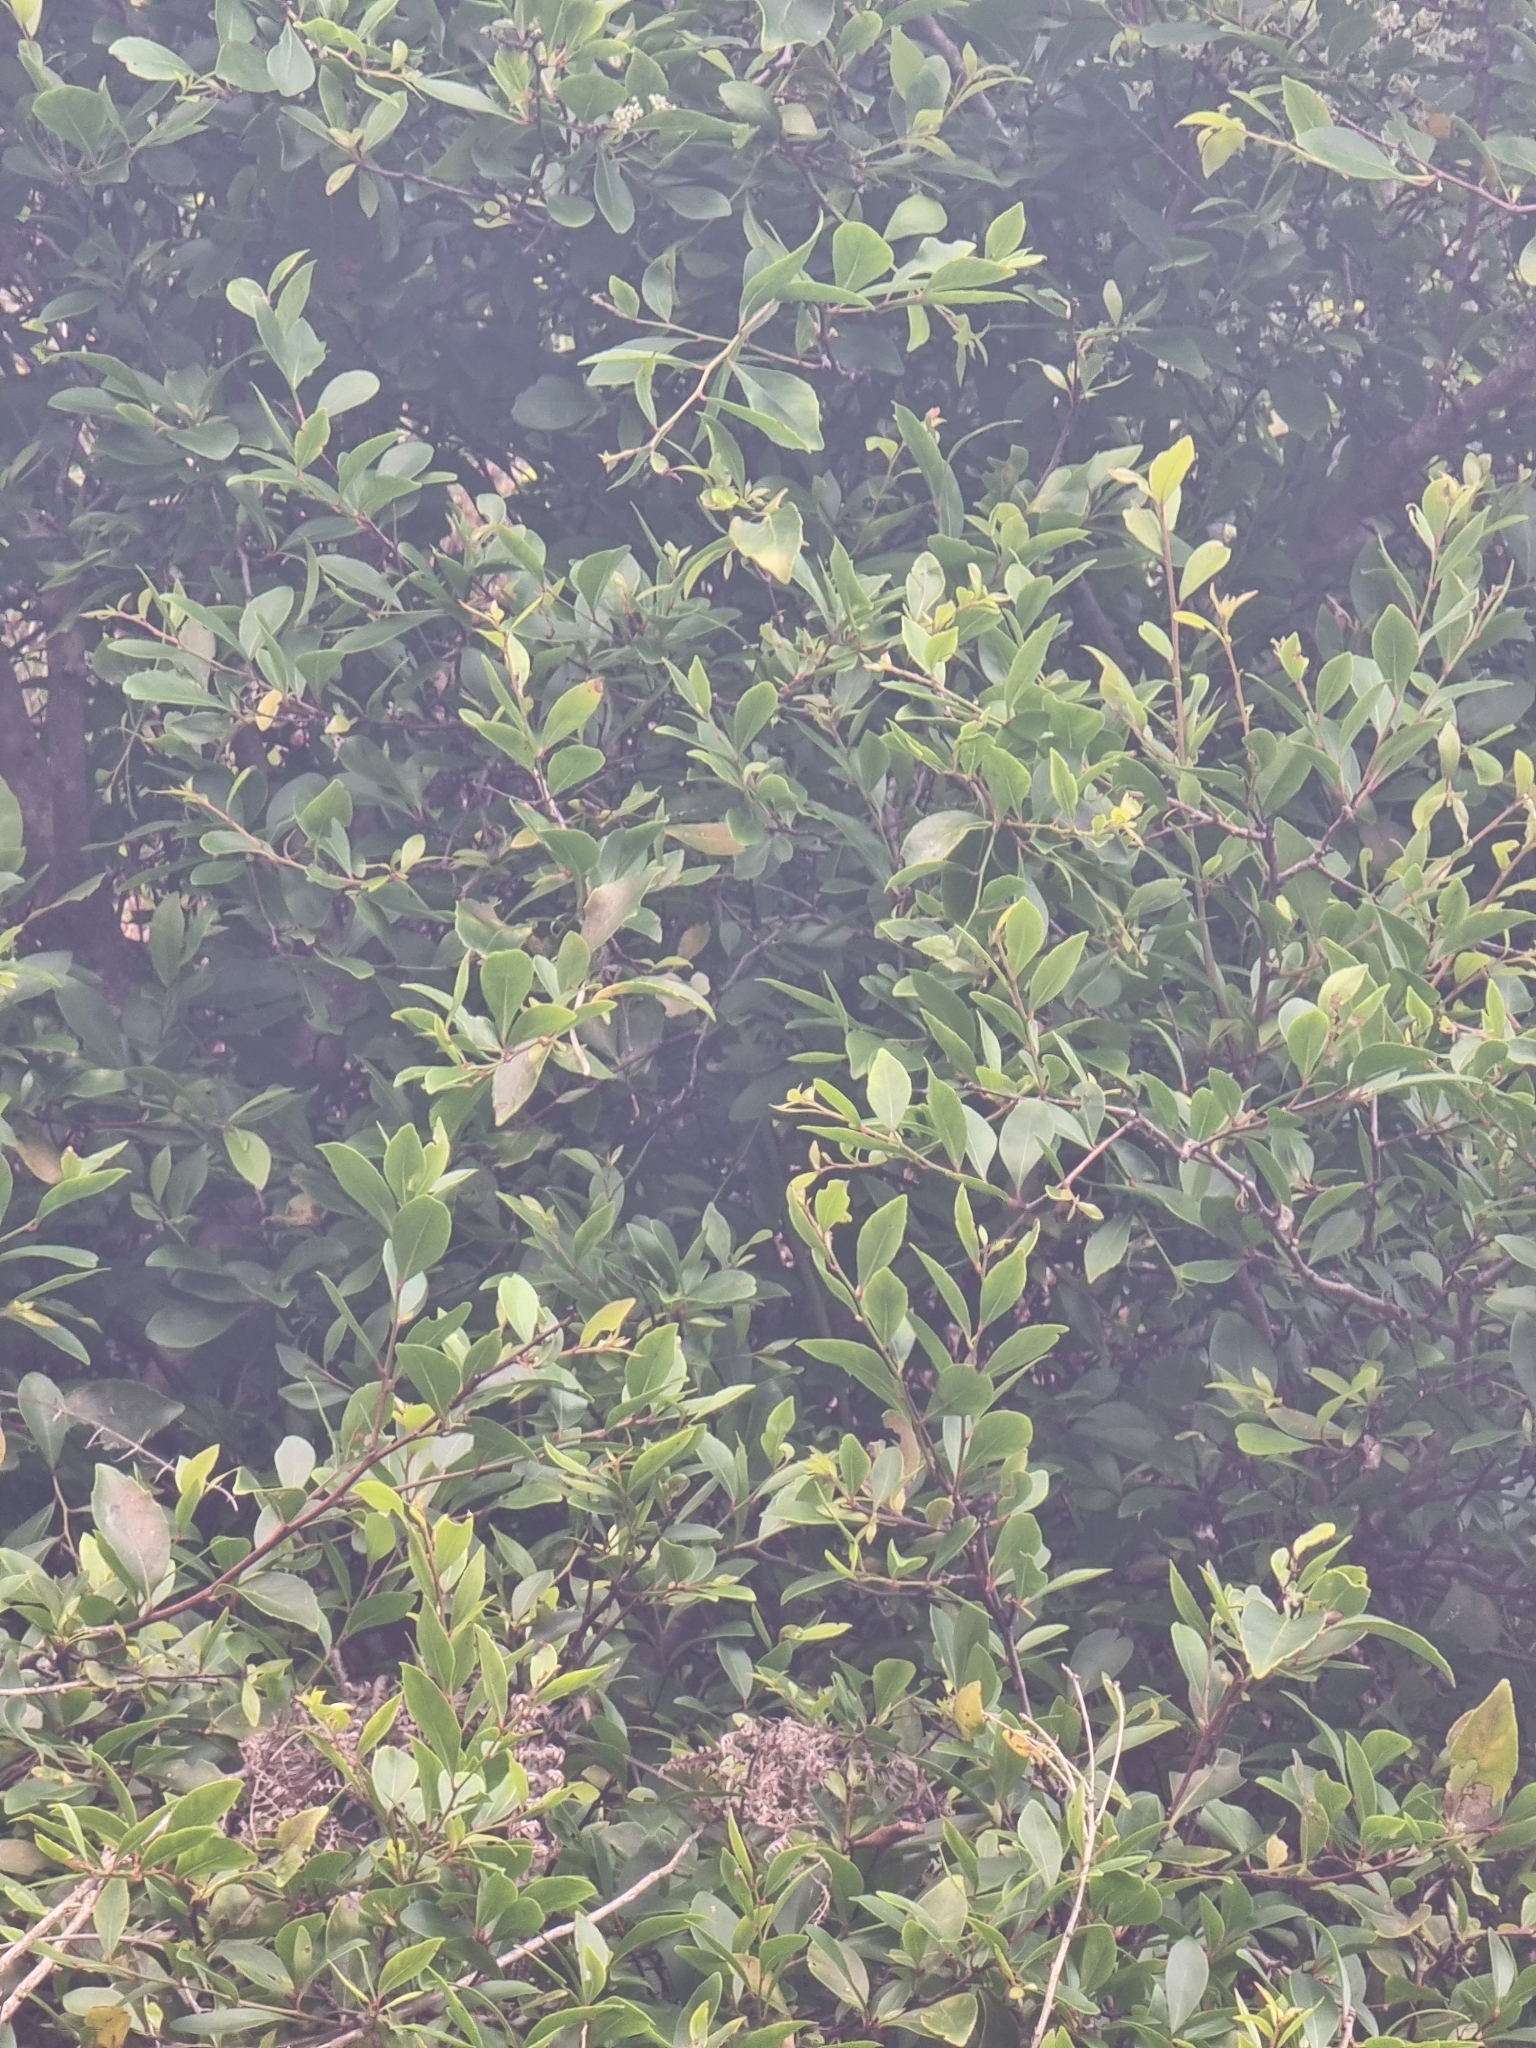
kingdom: Plantae
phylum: Tracheophyta
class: Magnoliopsida
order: Celastrales
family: Celastraceae
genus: Gymnosporia
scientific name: Gymnosporia dryandri
